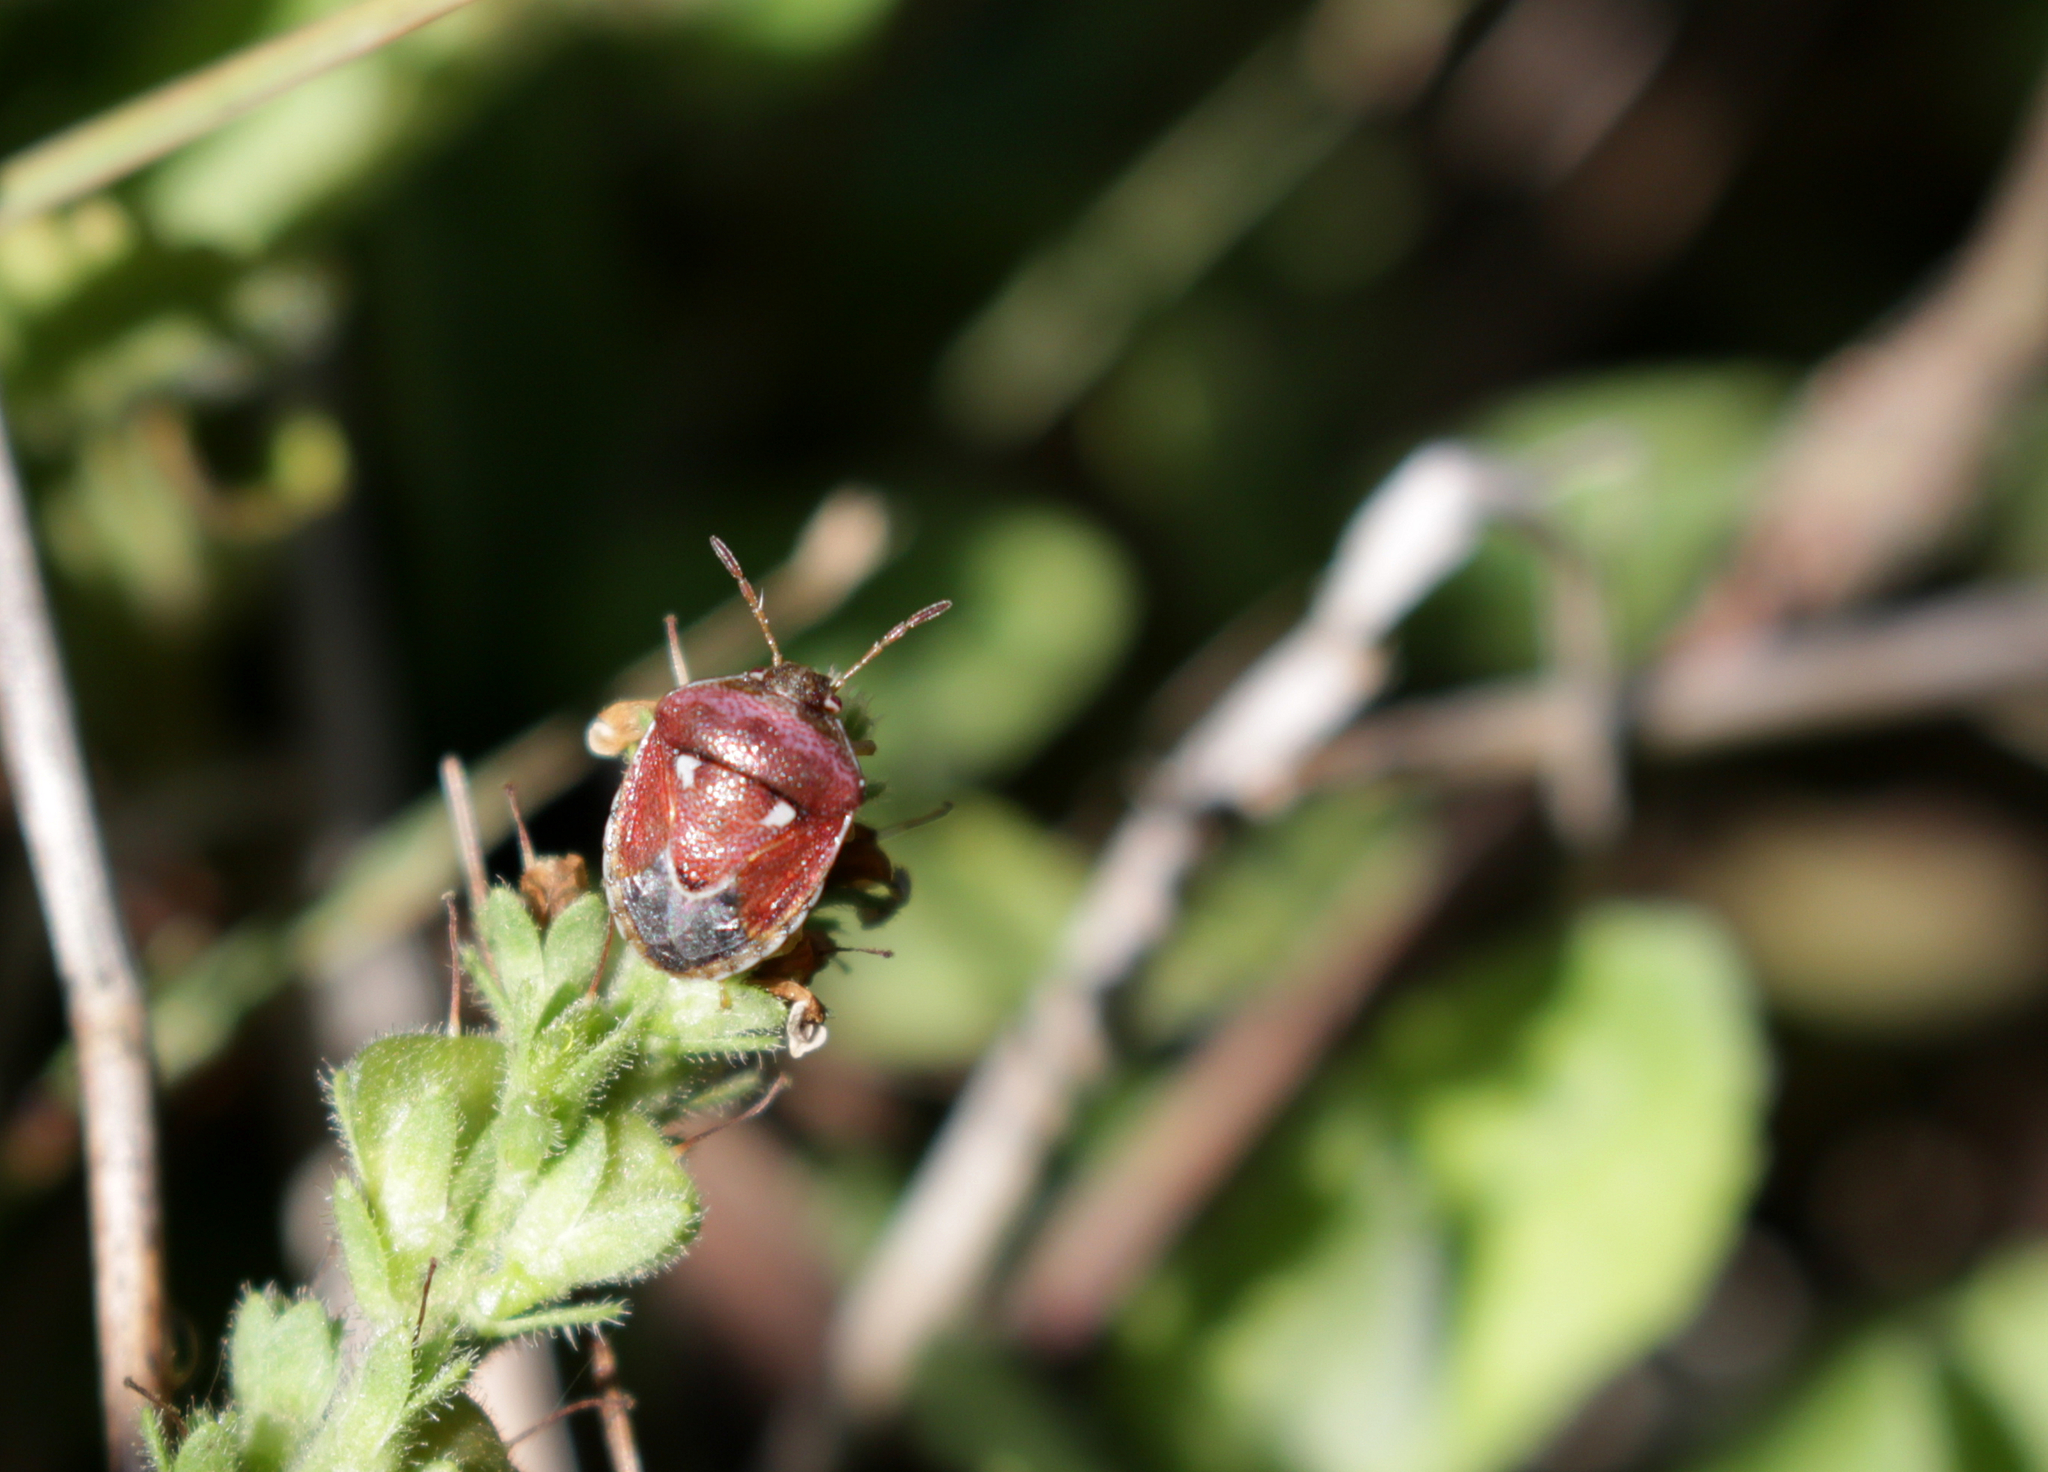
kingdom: Animalia
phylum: Arthropoda
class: Insecta
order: Hemiptera
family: Pentatomidae
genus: Stagonomus
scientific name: Stagonomus bipunctatus
